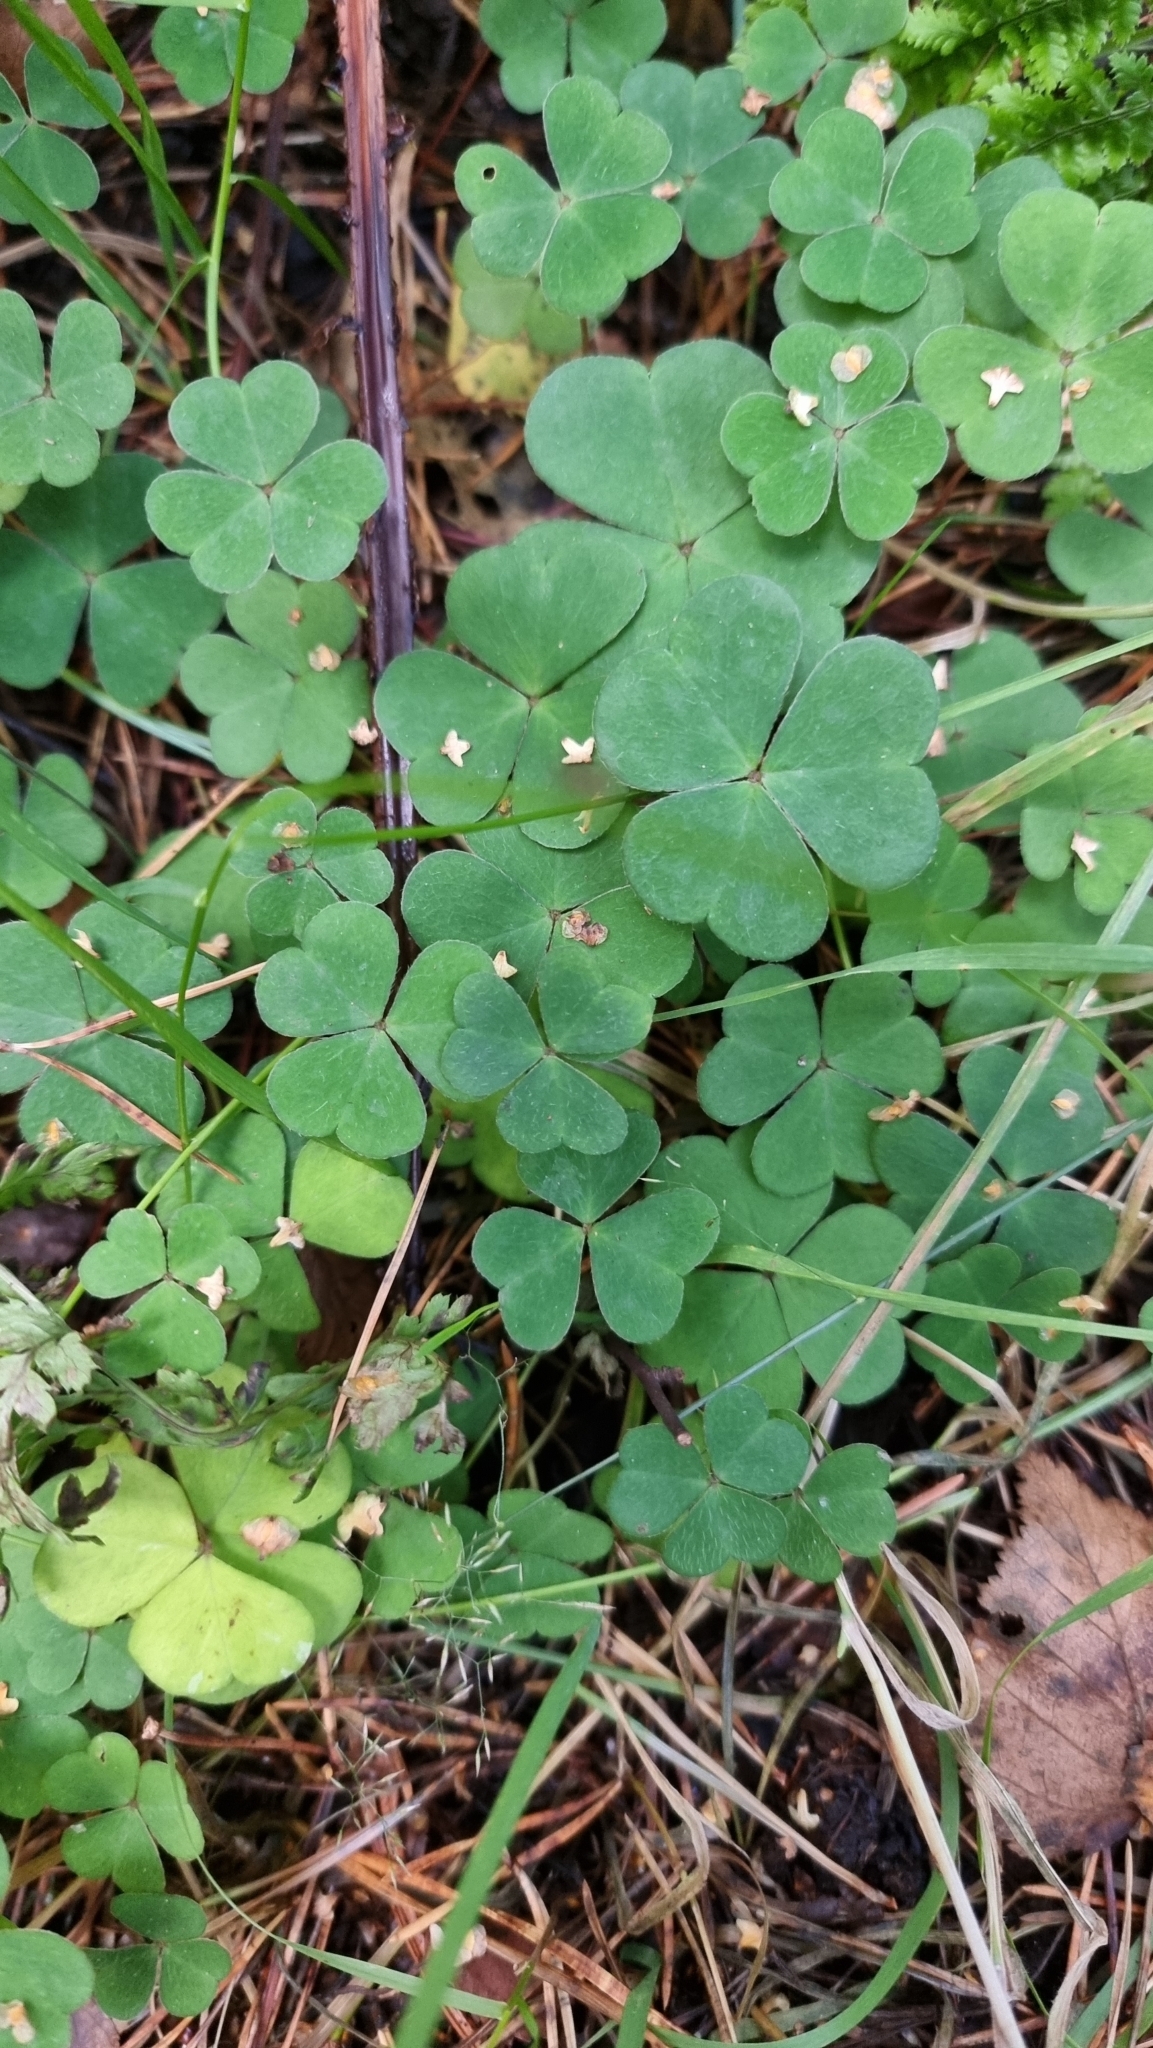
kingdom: Plantae
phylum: Tracheophyta
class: Magnoliopsida
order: Oxalidales
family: Oxalidaceae
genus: Oxalis
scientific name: Oxalis acetosella
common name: Wood-sorrel
